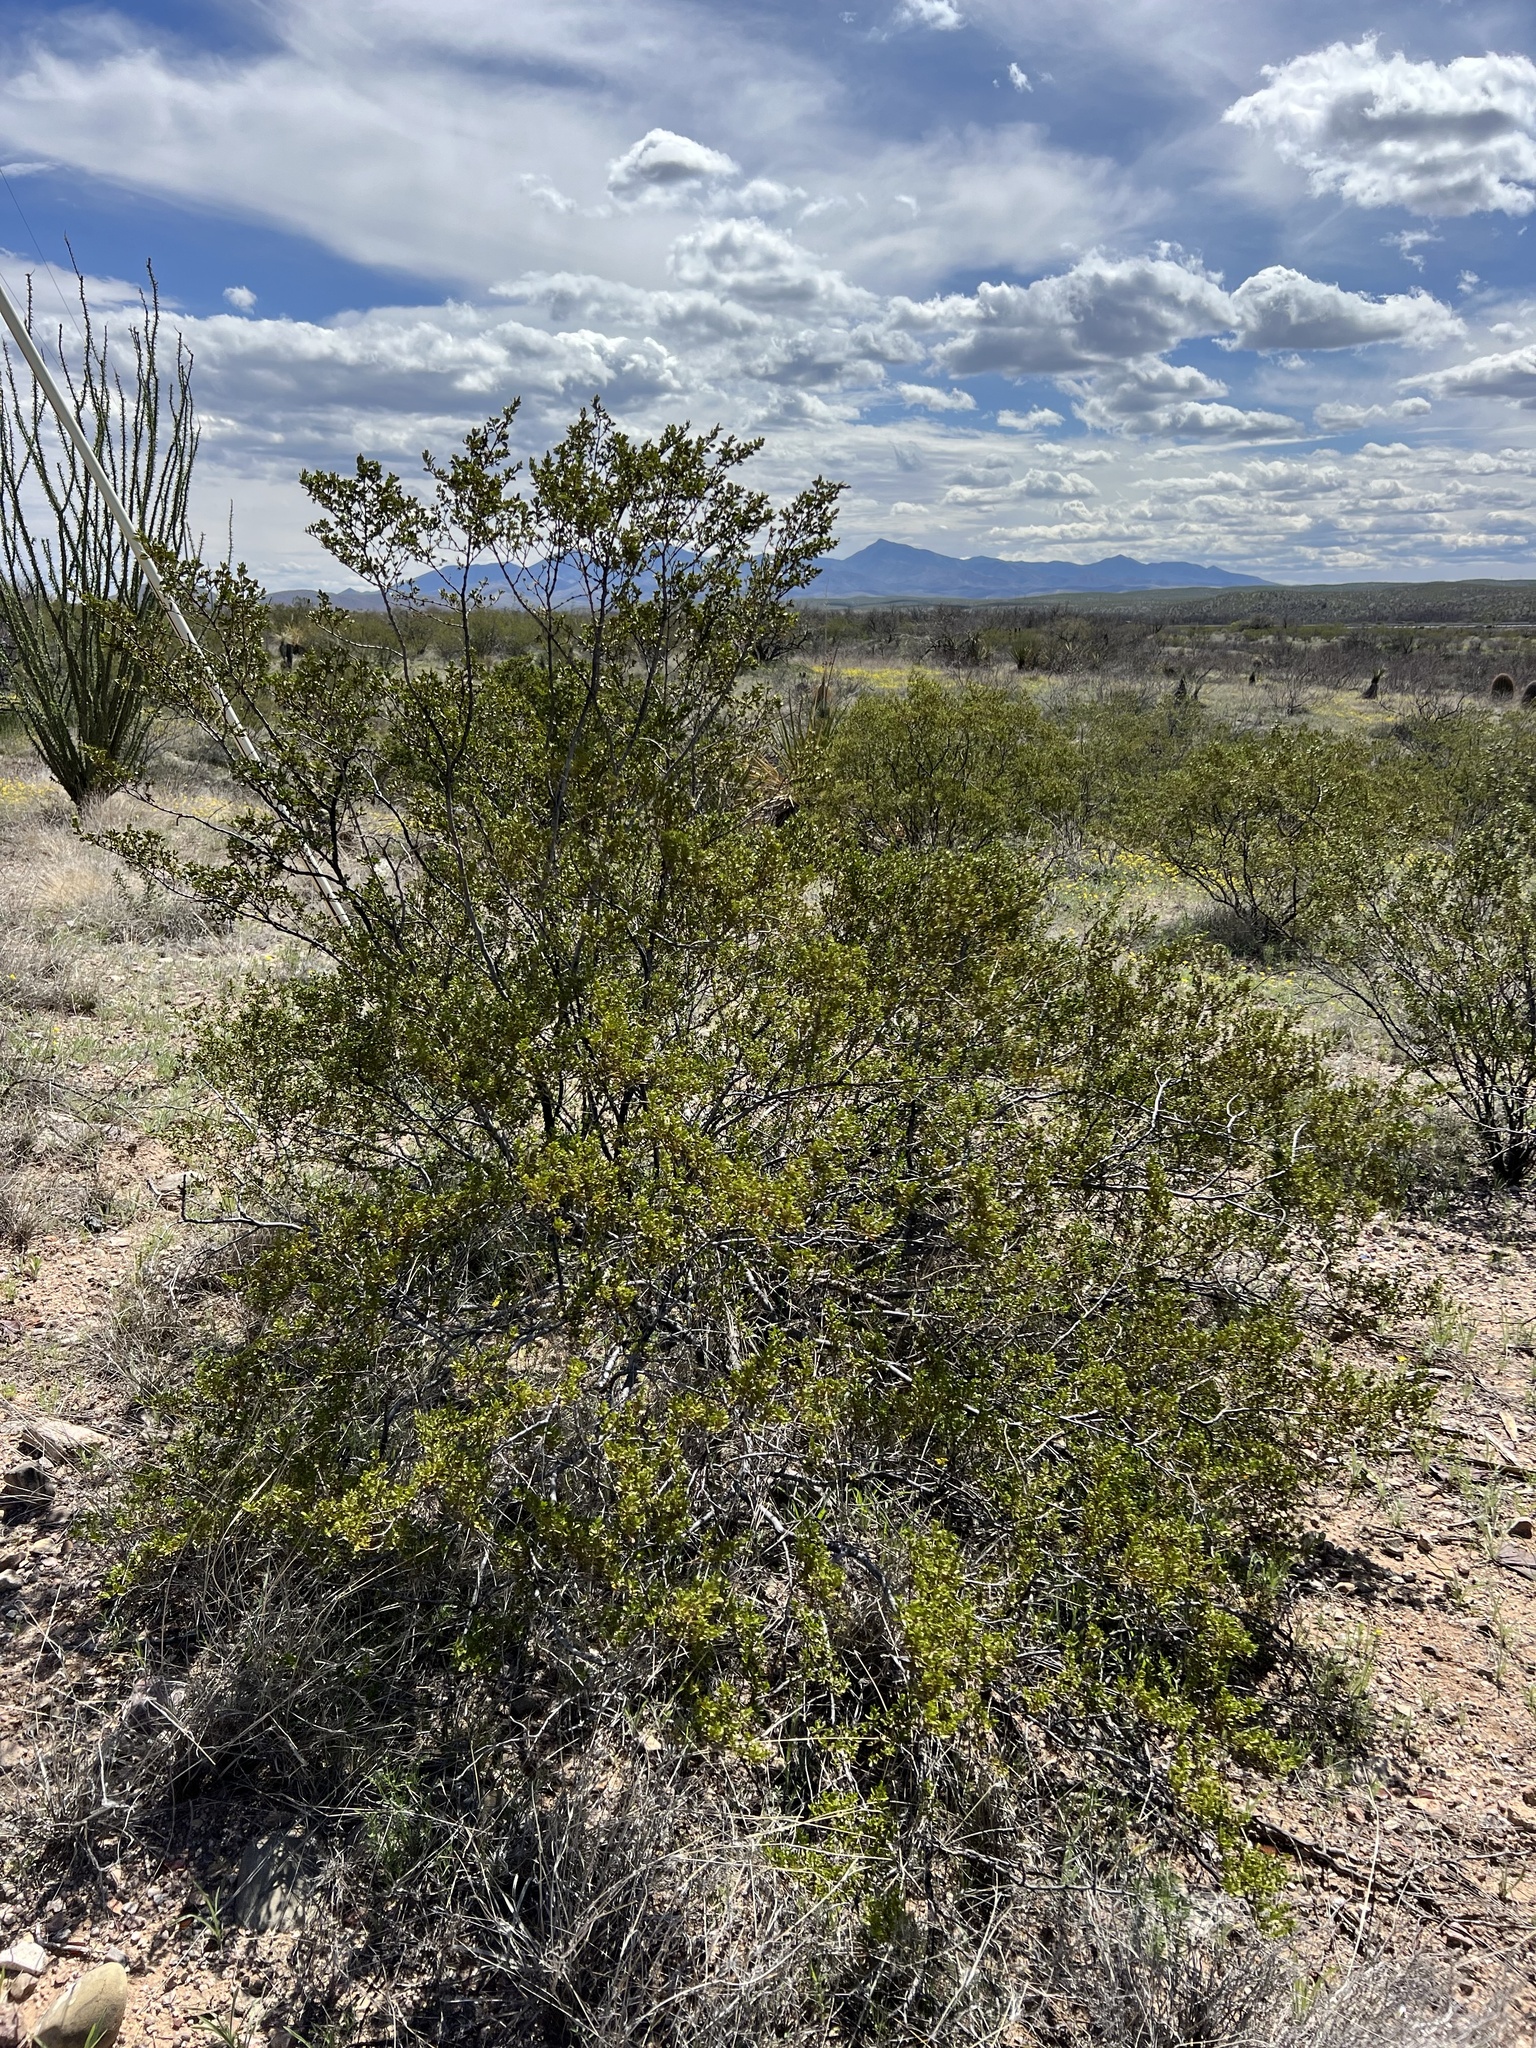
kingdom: Plantae
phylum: Tracheophyta
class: Magnoliopsida
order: Zygophyllales
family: Zygophyllaceae
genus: Larrea
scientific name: Larrea tridentata
